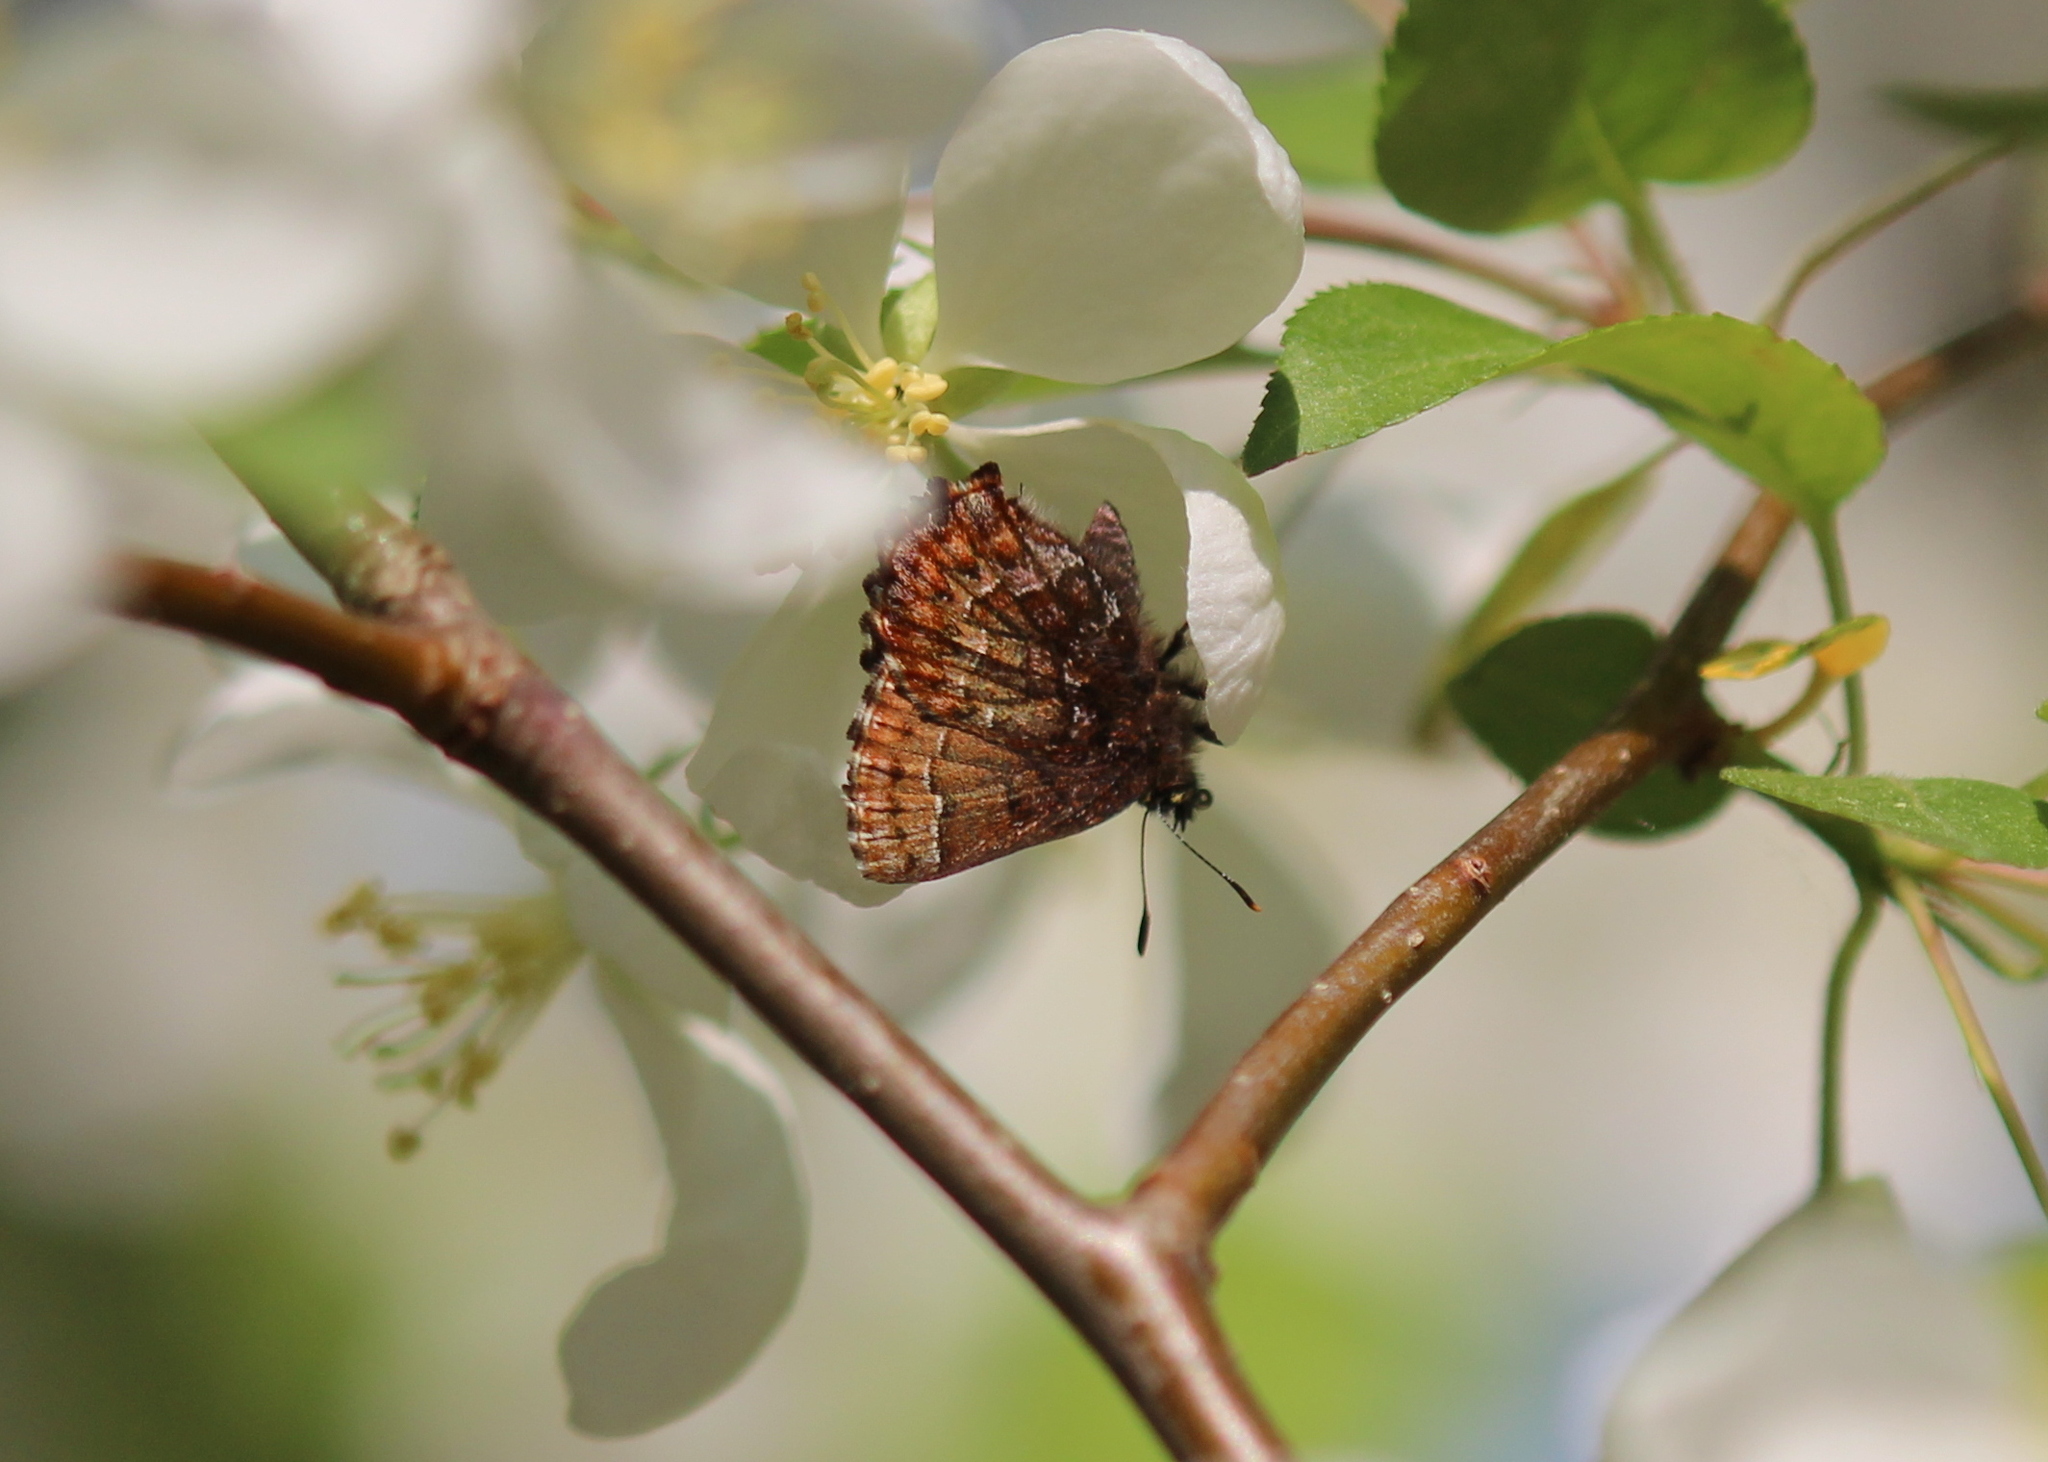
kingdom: Animalia
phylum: Arthropoda
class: Insecta
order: Lepidoptera
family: Lycaenidae
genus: Incisalia
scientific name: Incisalia niphon
